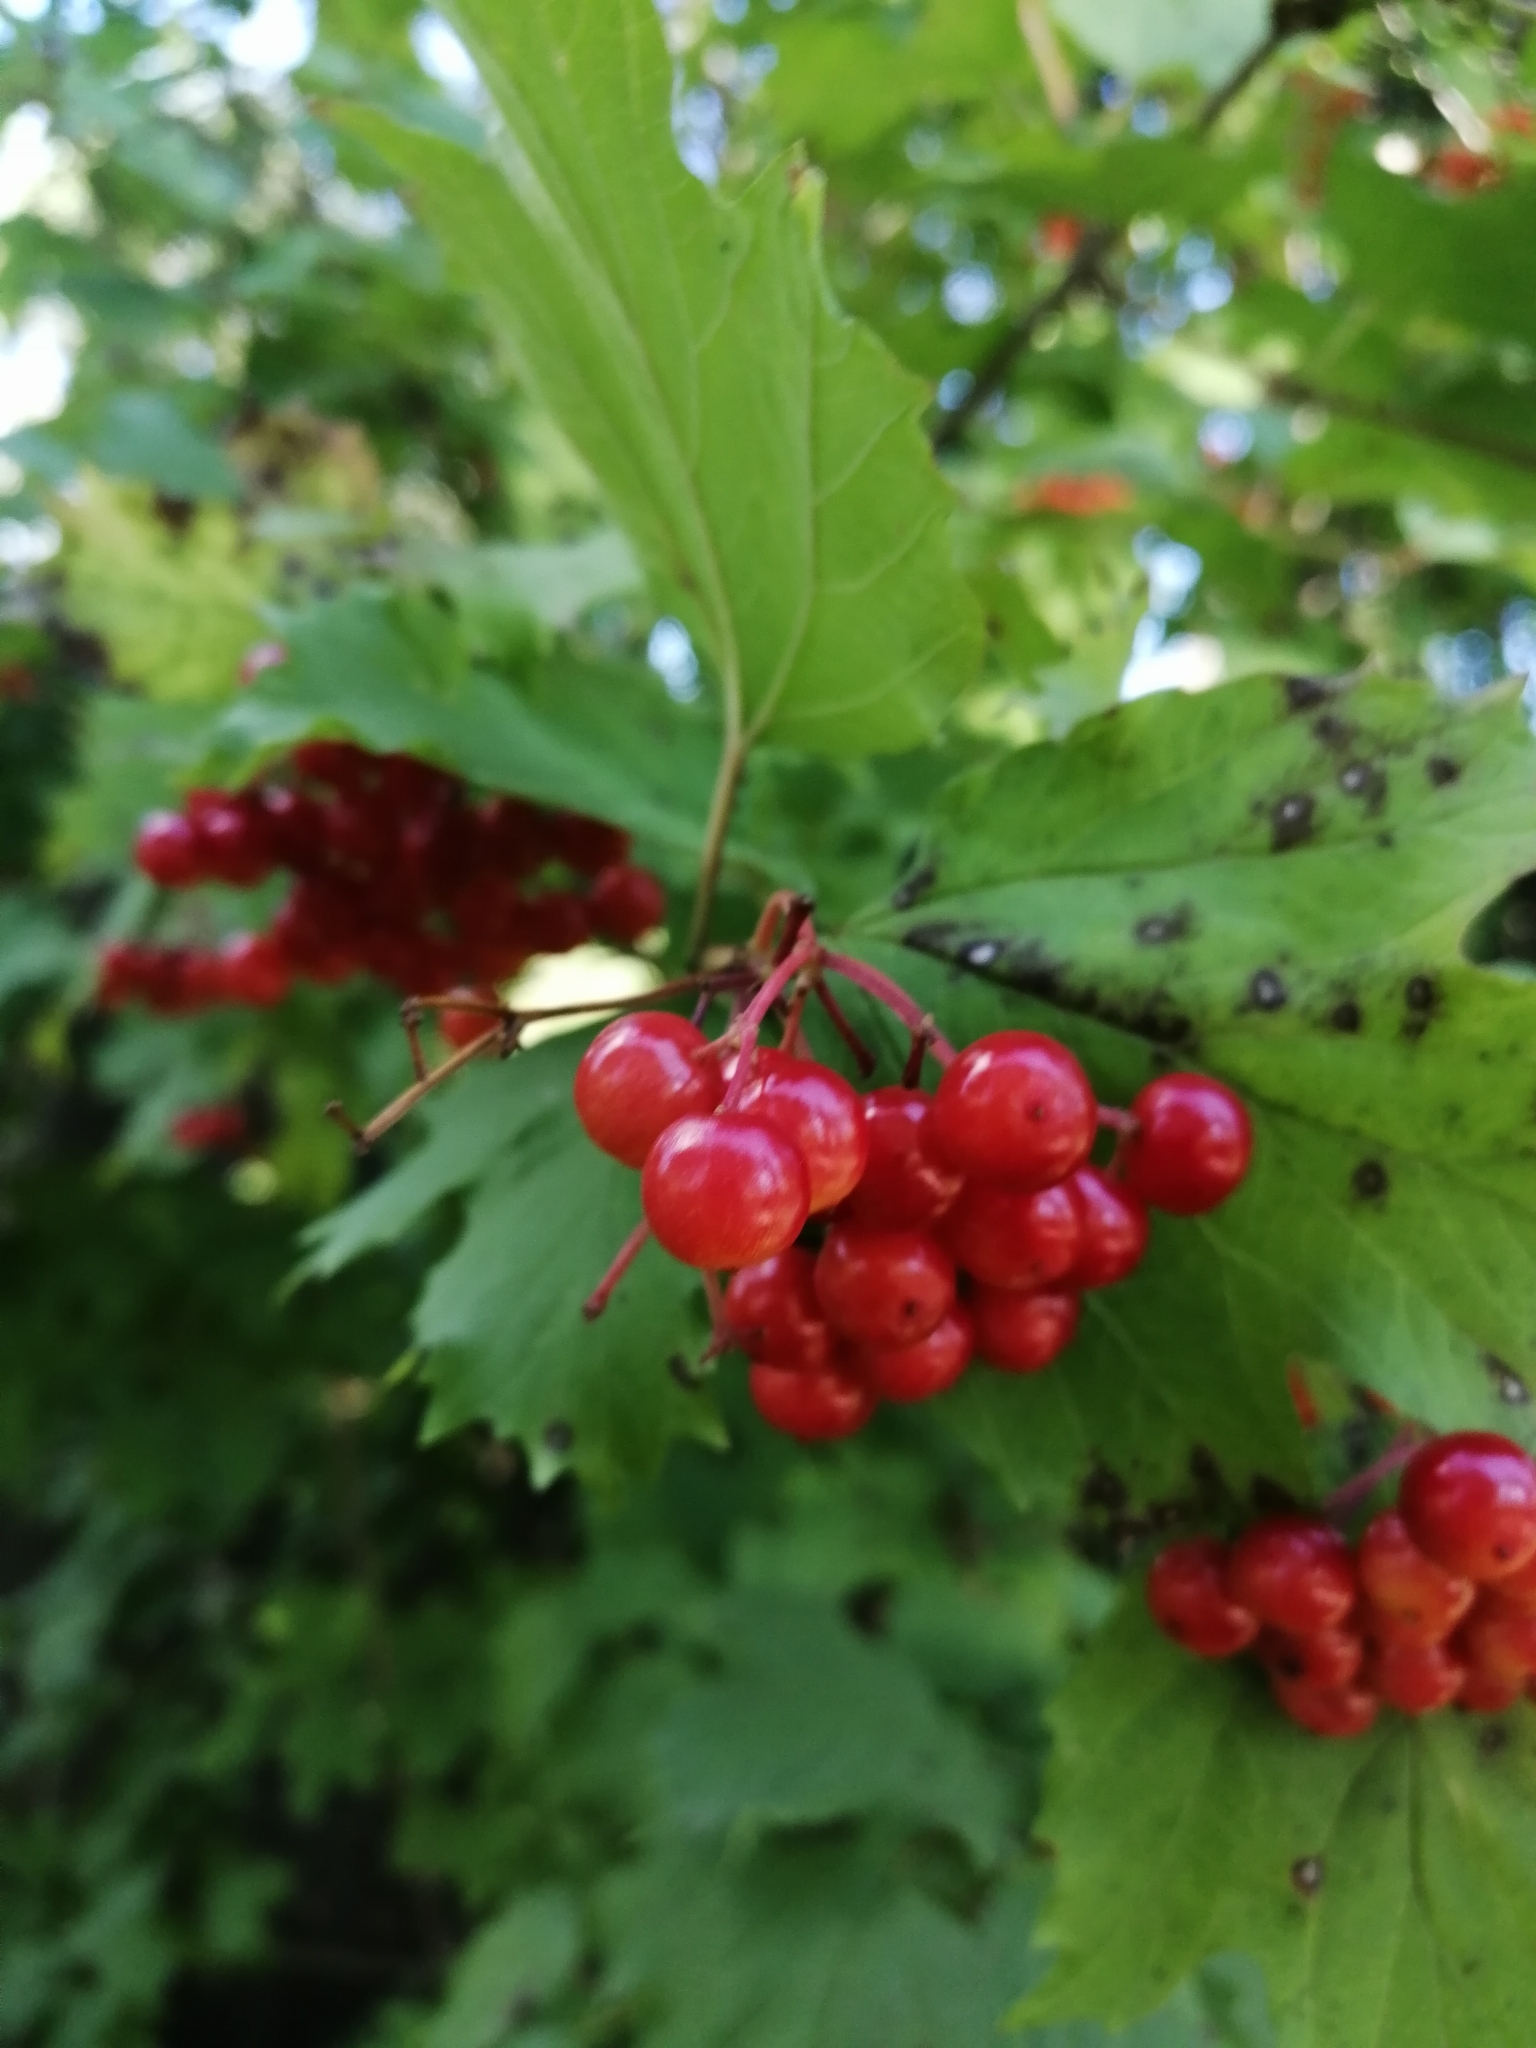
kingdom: Plantae
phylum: Tracheophyta
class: Magnoliopsida
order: Dipsacales
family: Viburnaceae
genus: Viburnum
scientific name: Viburnum opulus
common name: Guelder-rose
